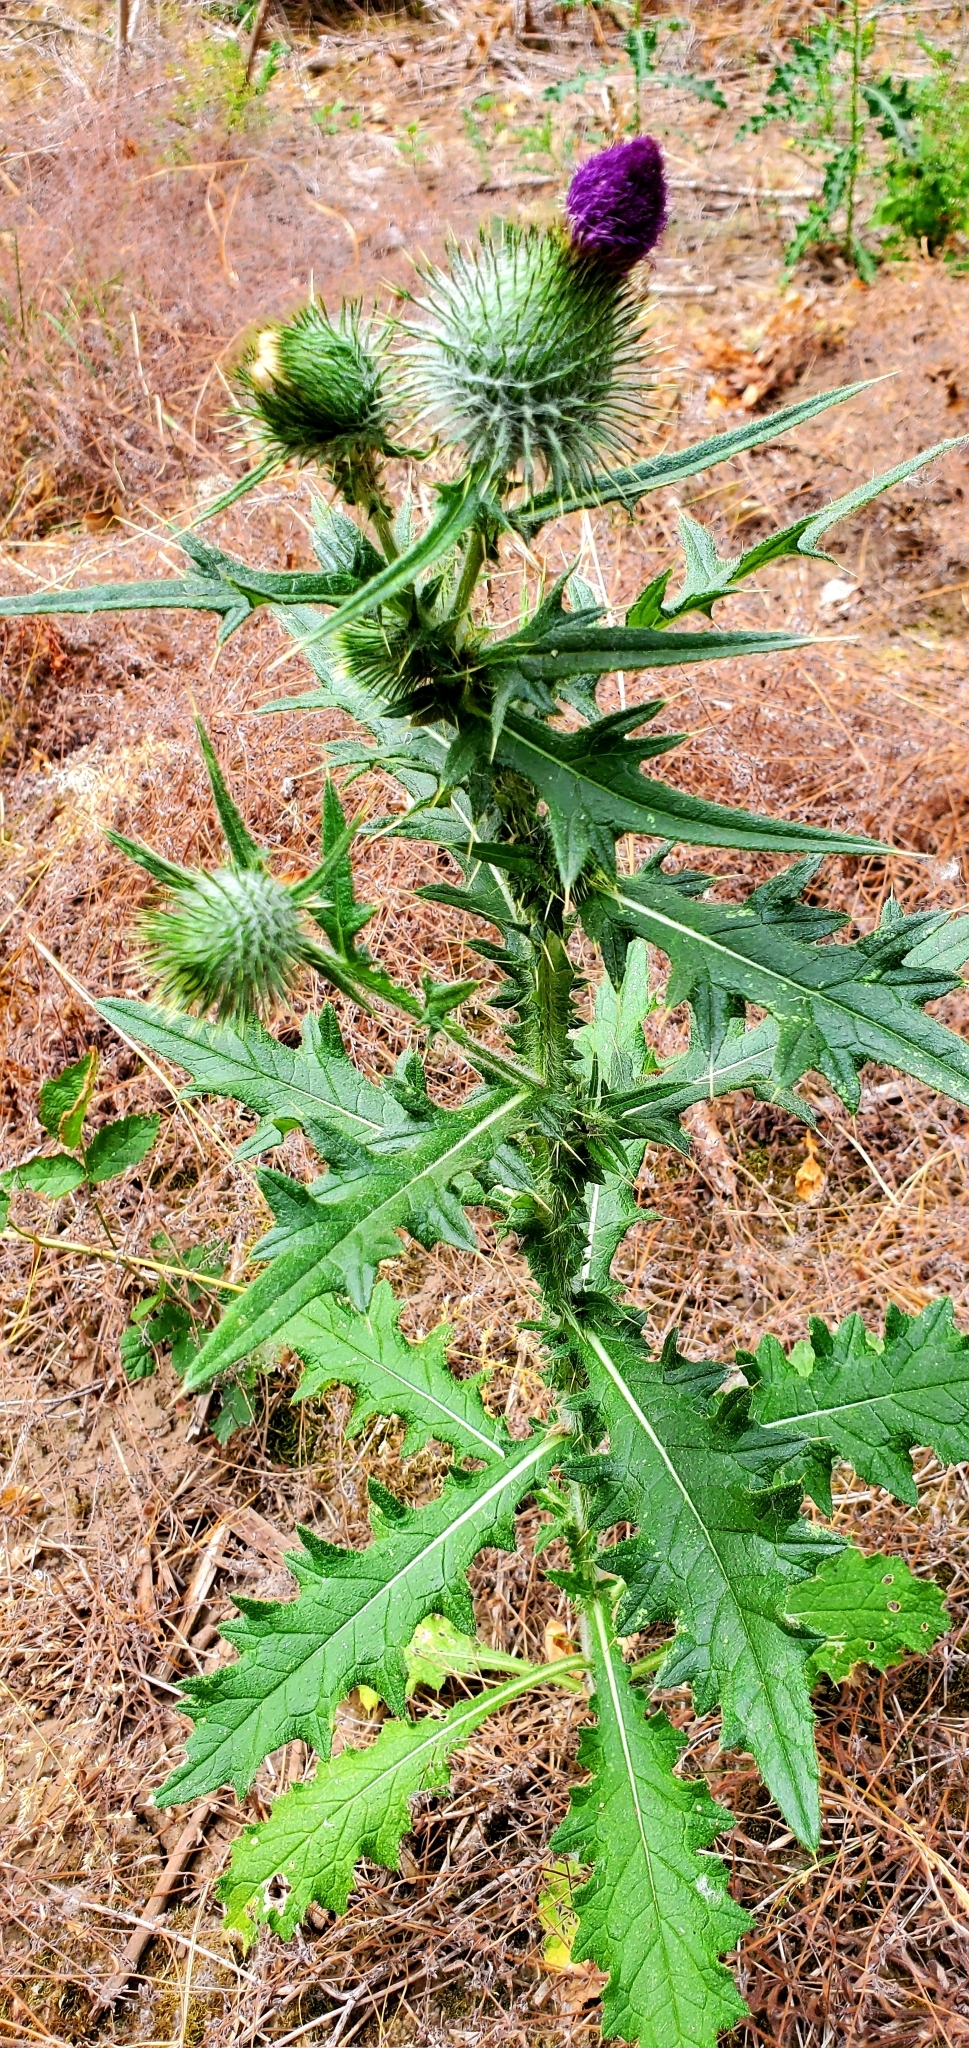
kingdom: Plantae
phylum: Tracheophyta
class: Magnoliopsida
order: Asterales
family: Asteraceae
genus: Cirsium
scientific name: Cirsium vulgare
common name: Bull thistle
